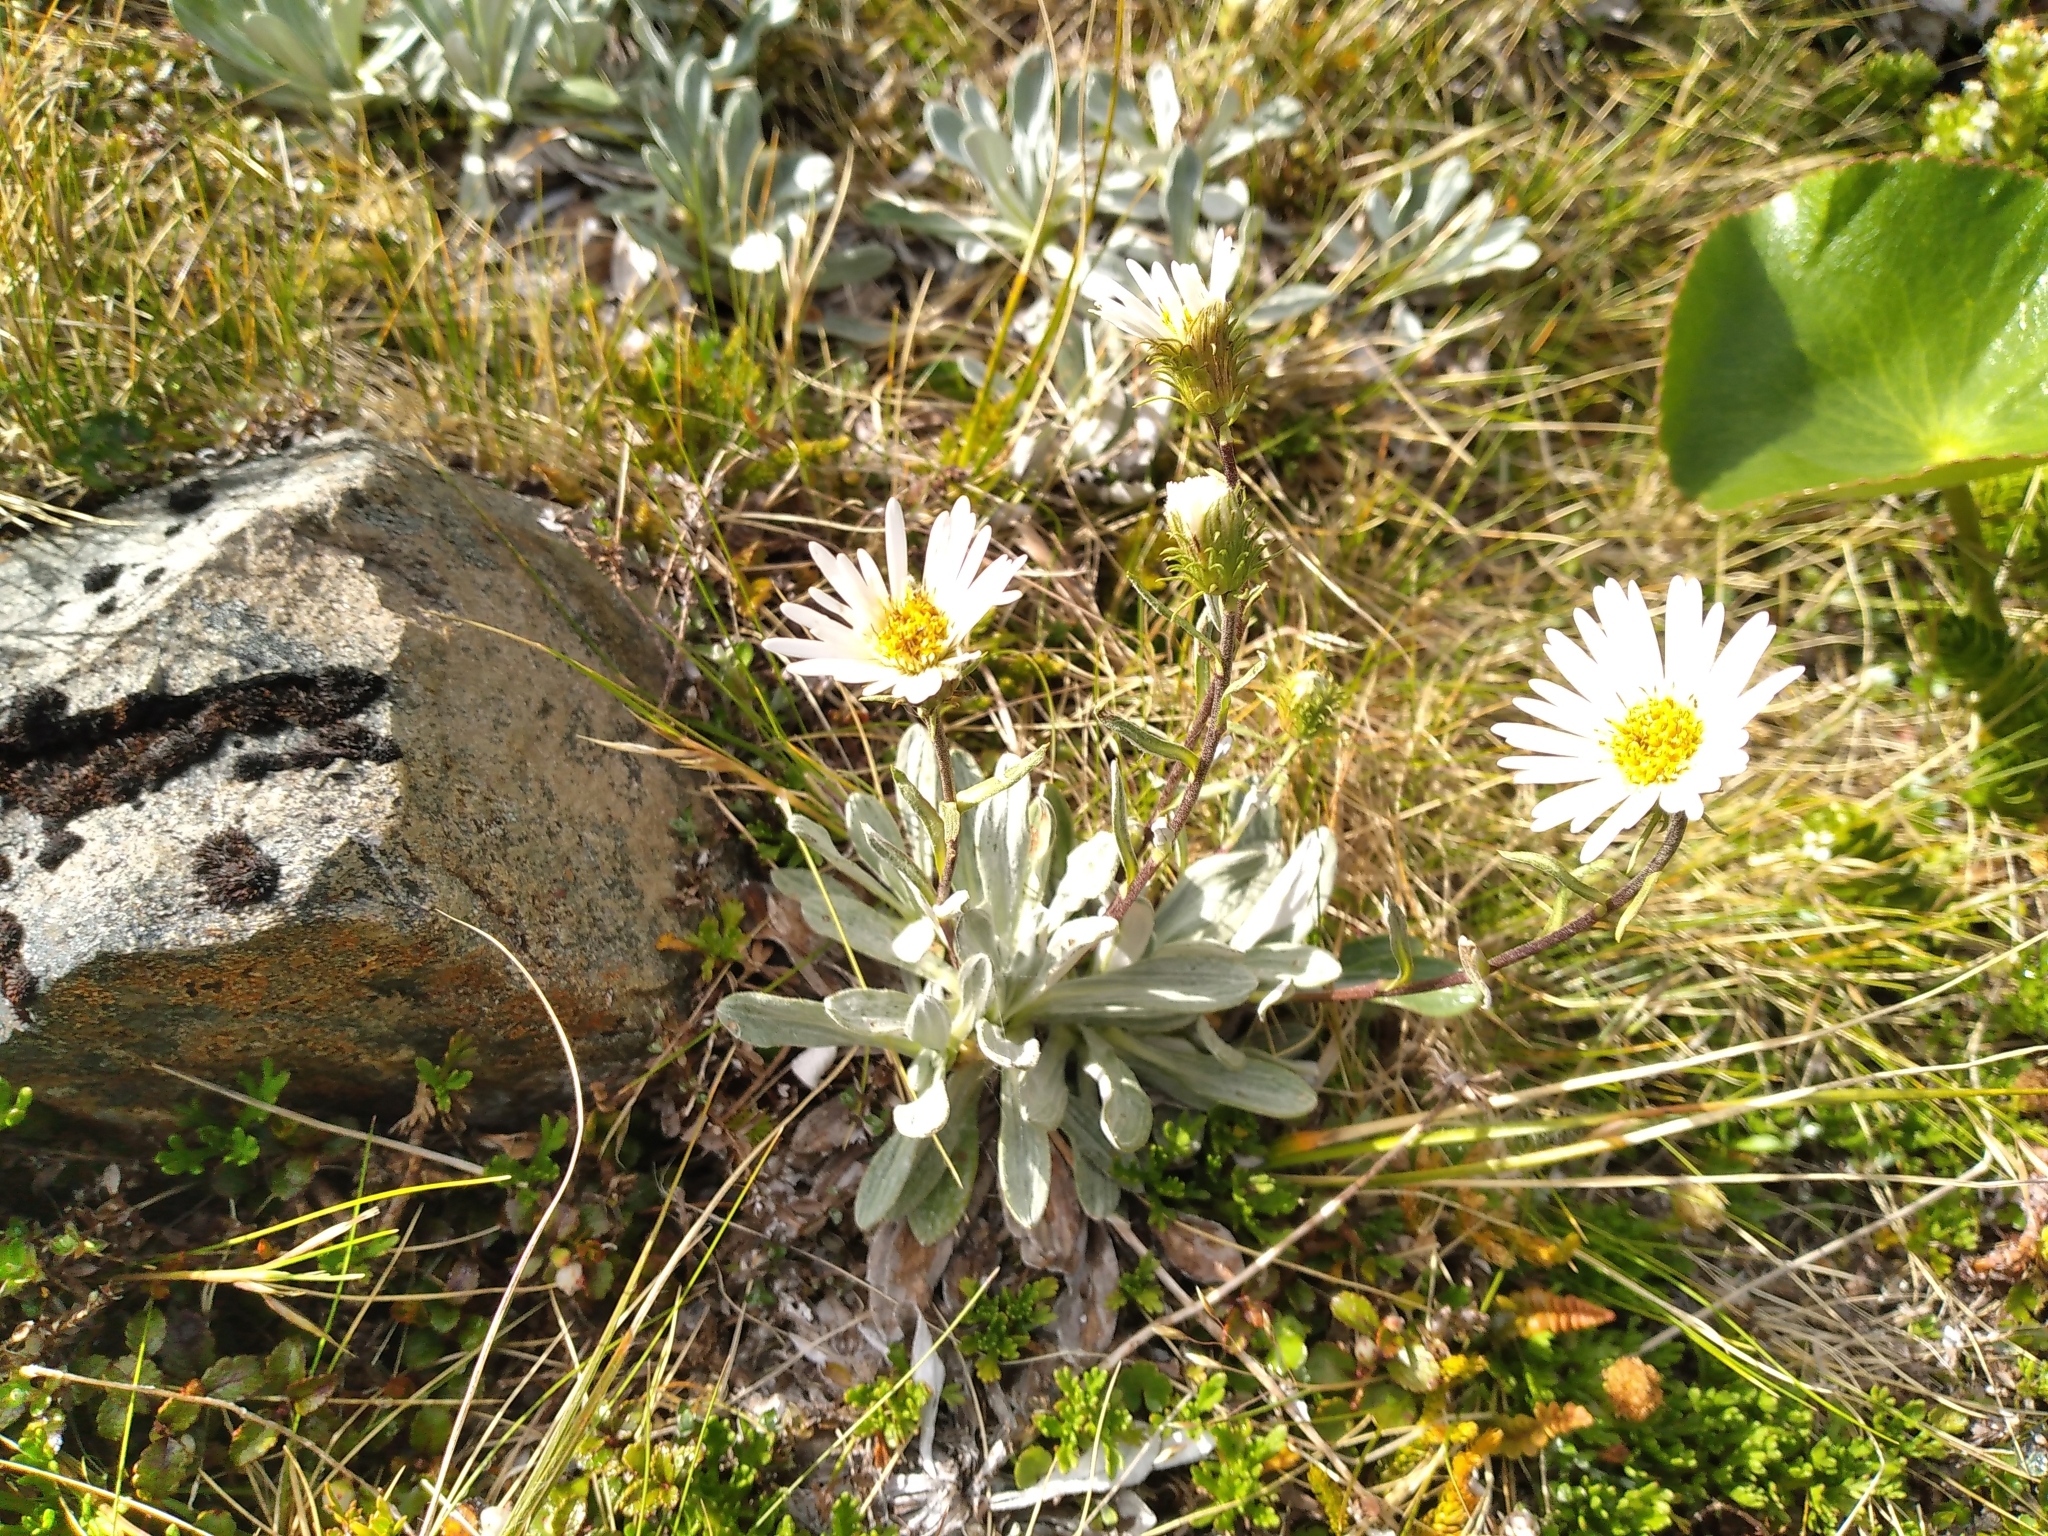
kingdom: Plantae
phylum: Tracheophyta
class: Magnoliopsida
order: Asterales
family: Asteraceae
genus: Celmisia
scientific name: Celmisia discolor
